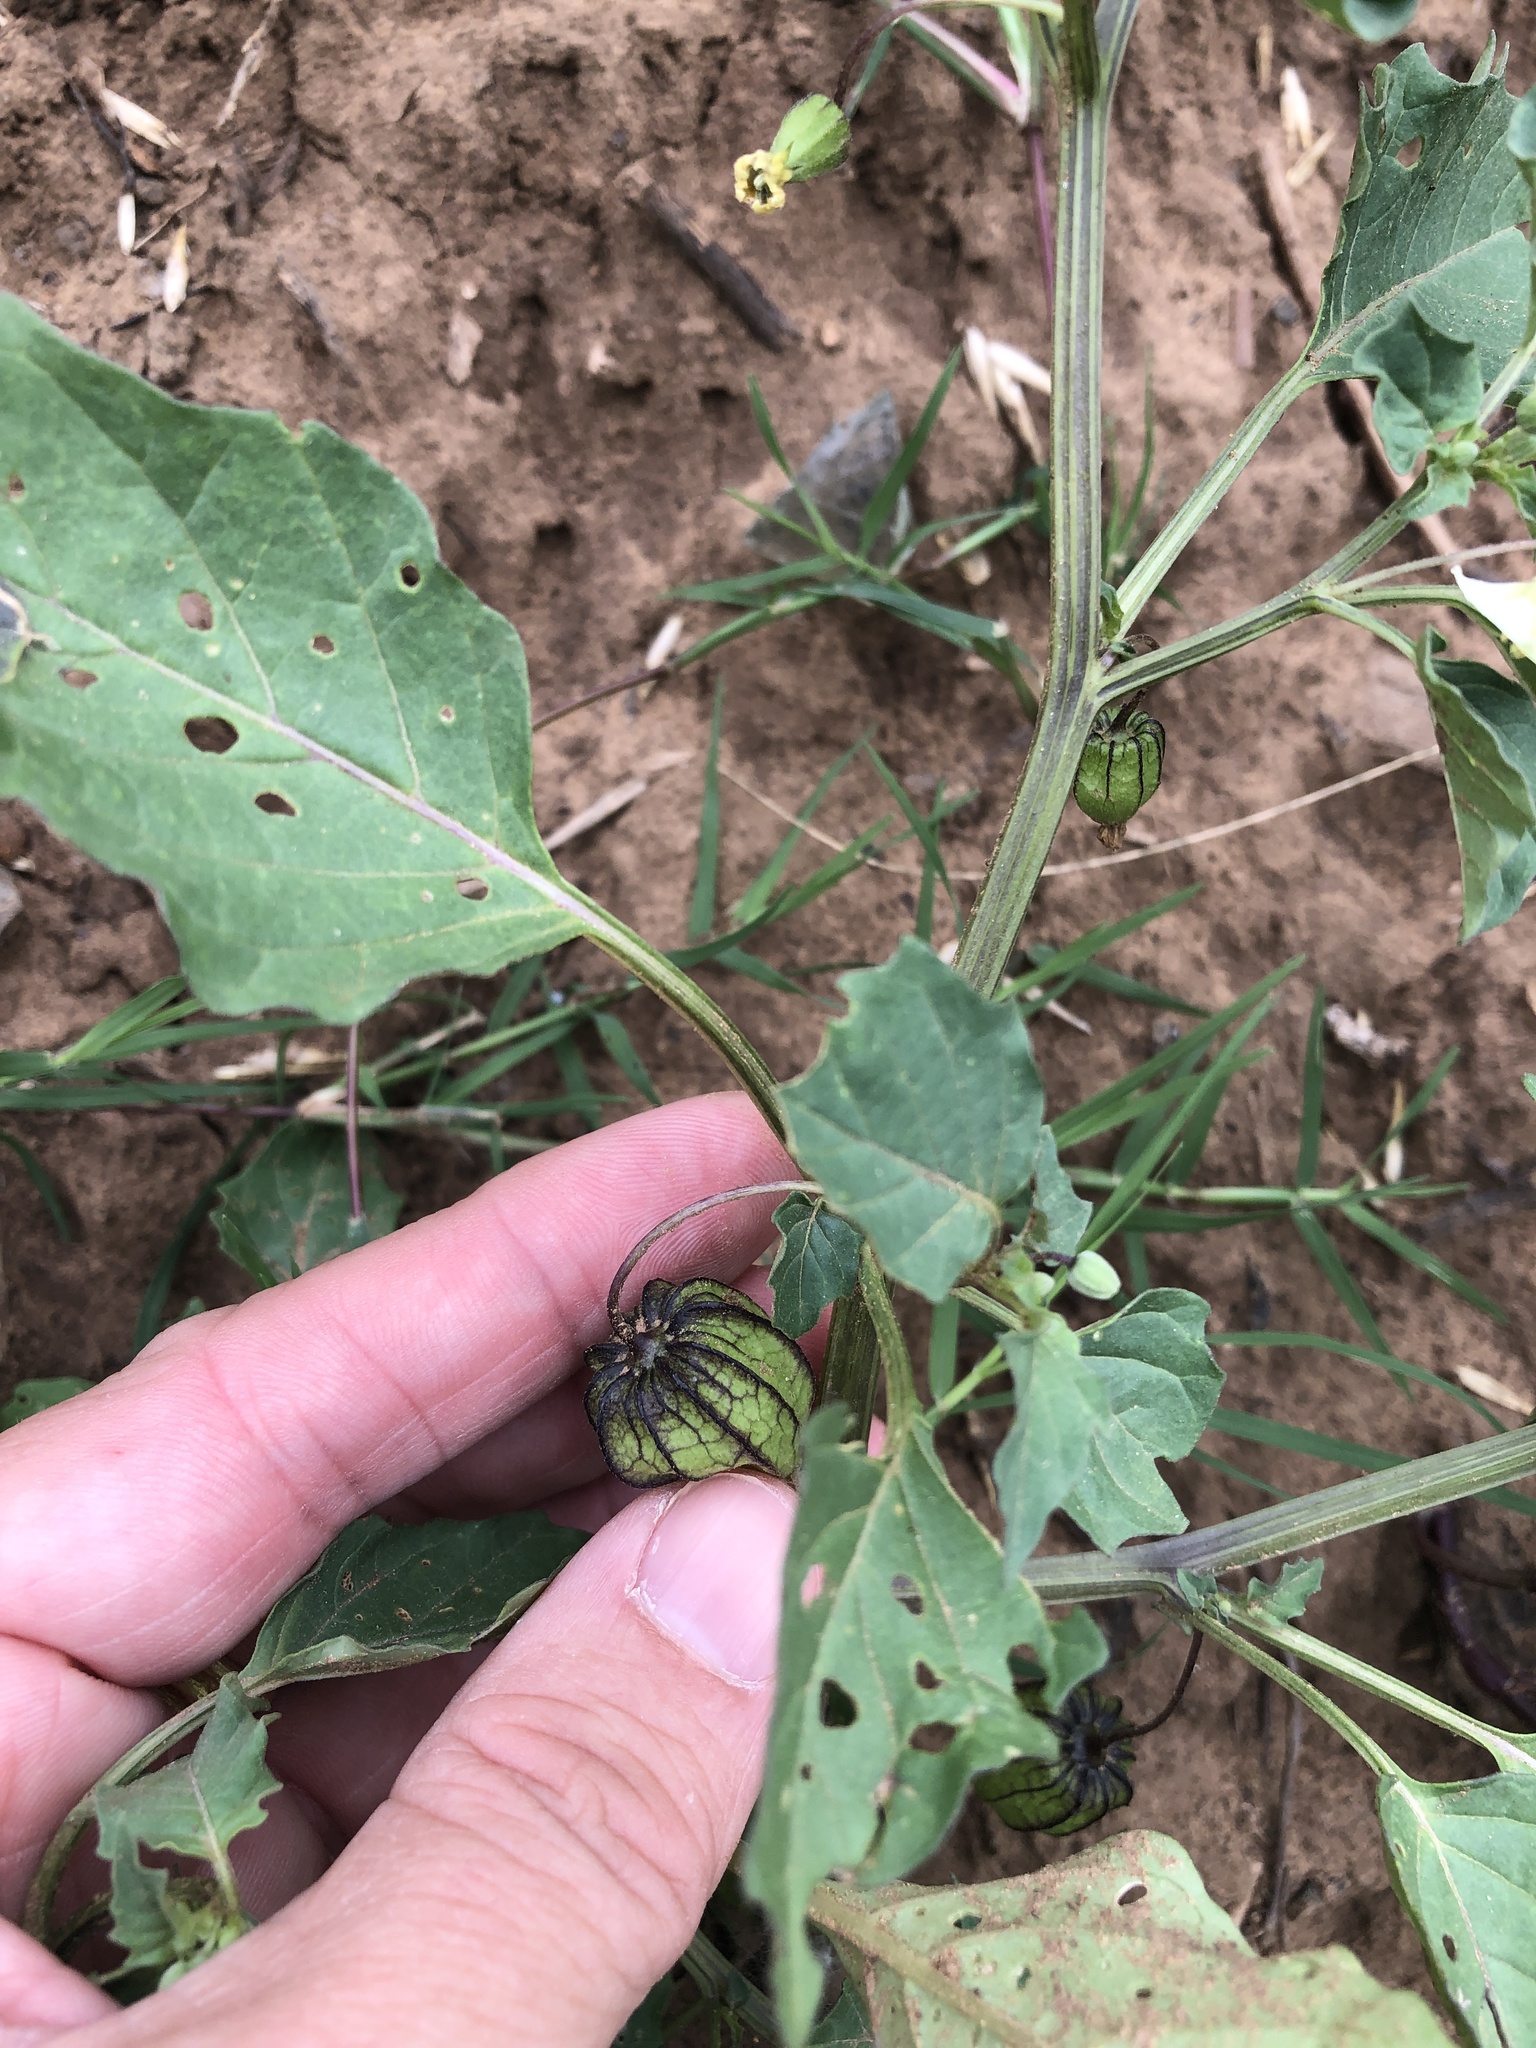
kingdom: Plantae
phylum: Tracheophyta
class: Magnoliopsida
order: Solanales
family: Solanaceae
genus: Physalis
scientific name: Physalis angulata
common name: Angular winter-cherry
